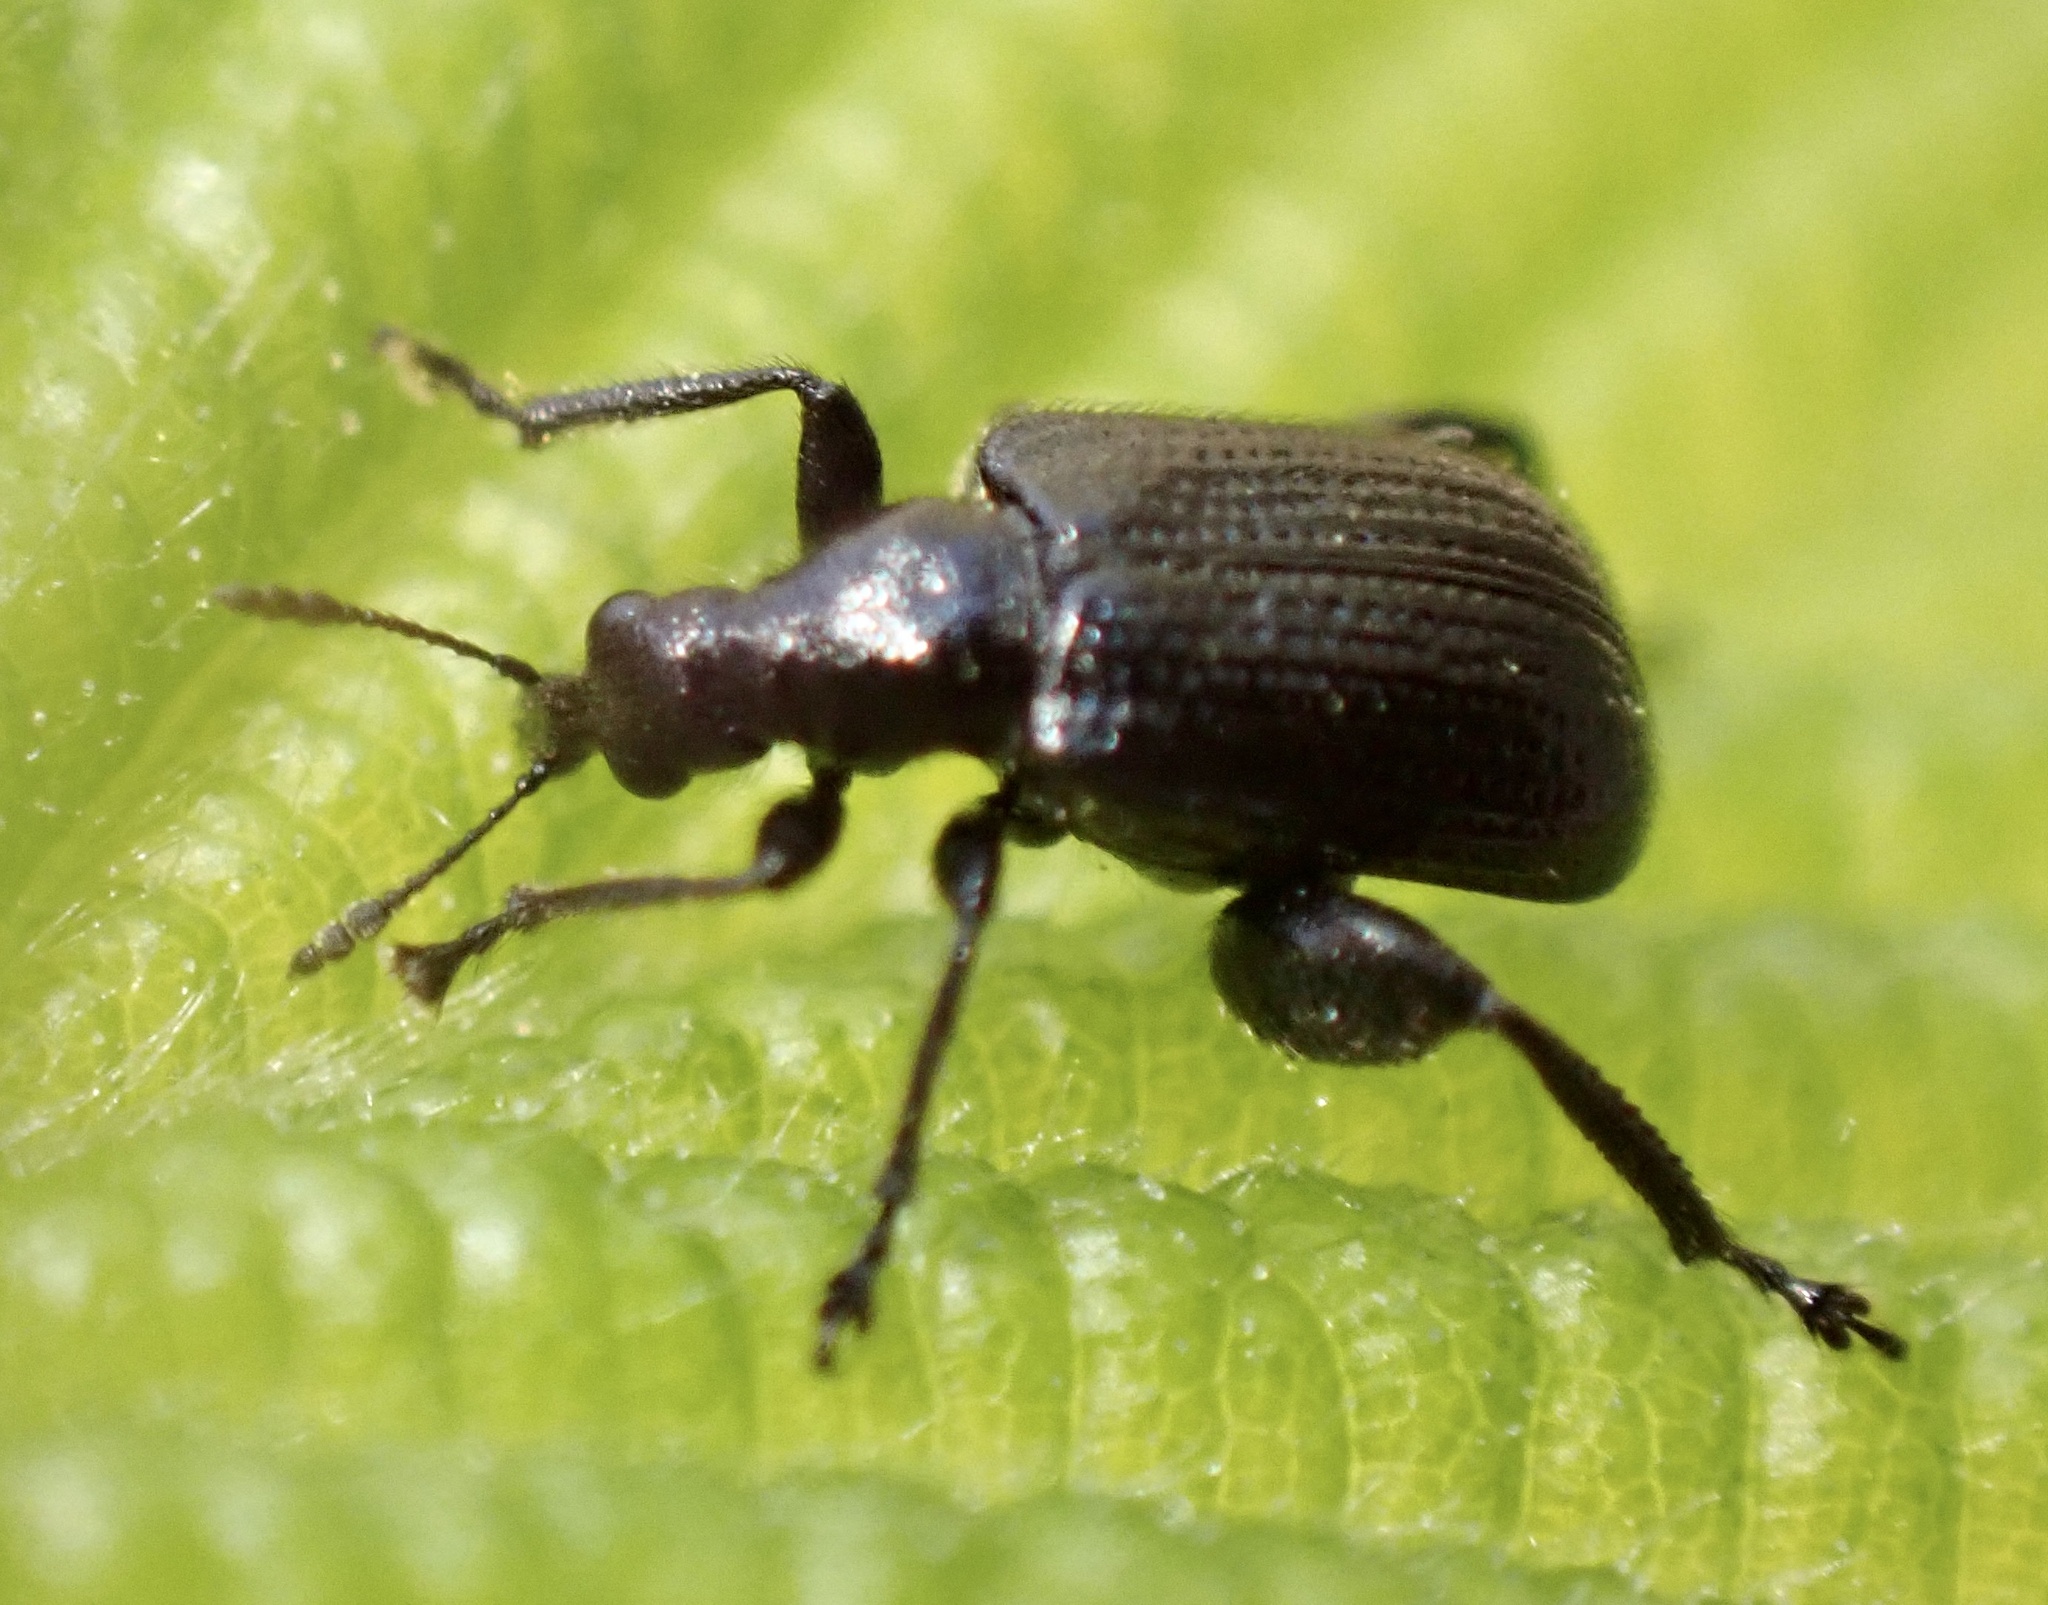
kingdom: Animalia
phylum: Arthropoda
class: Insecta
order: Coleoptera
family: Attelabidae
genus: Deporaus
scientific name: Deporaus betulae
